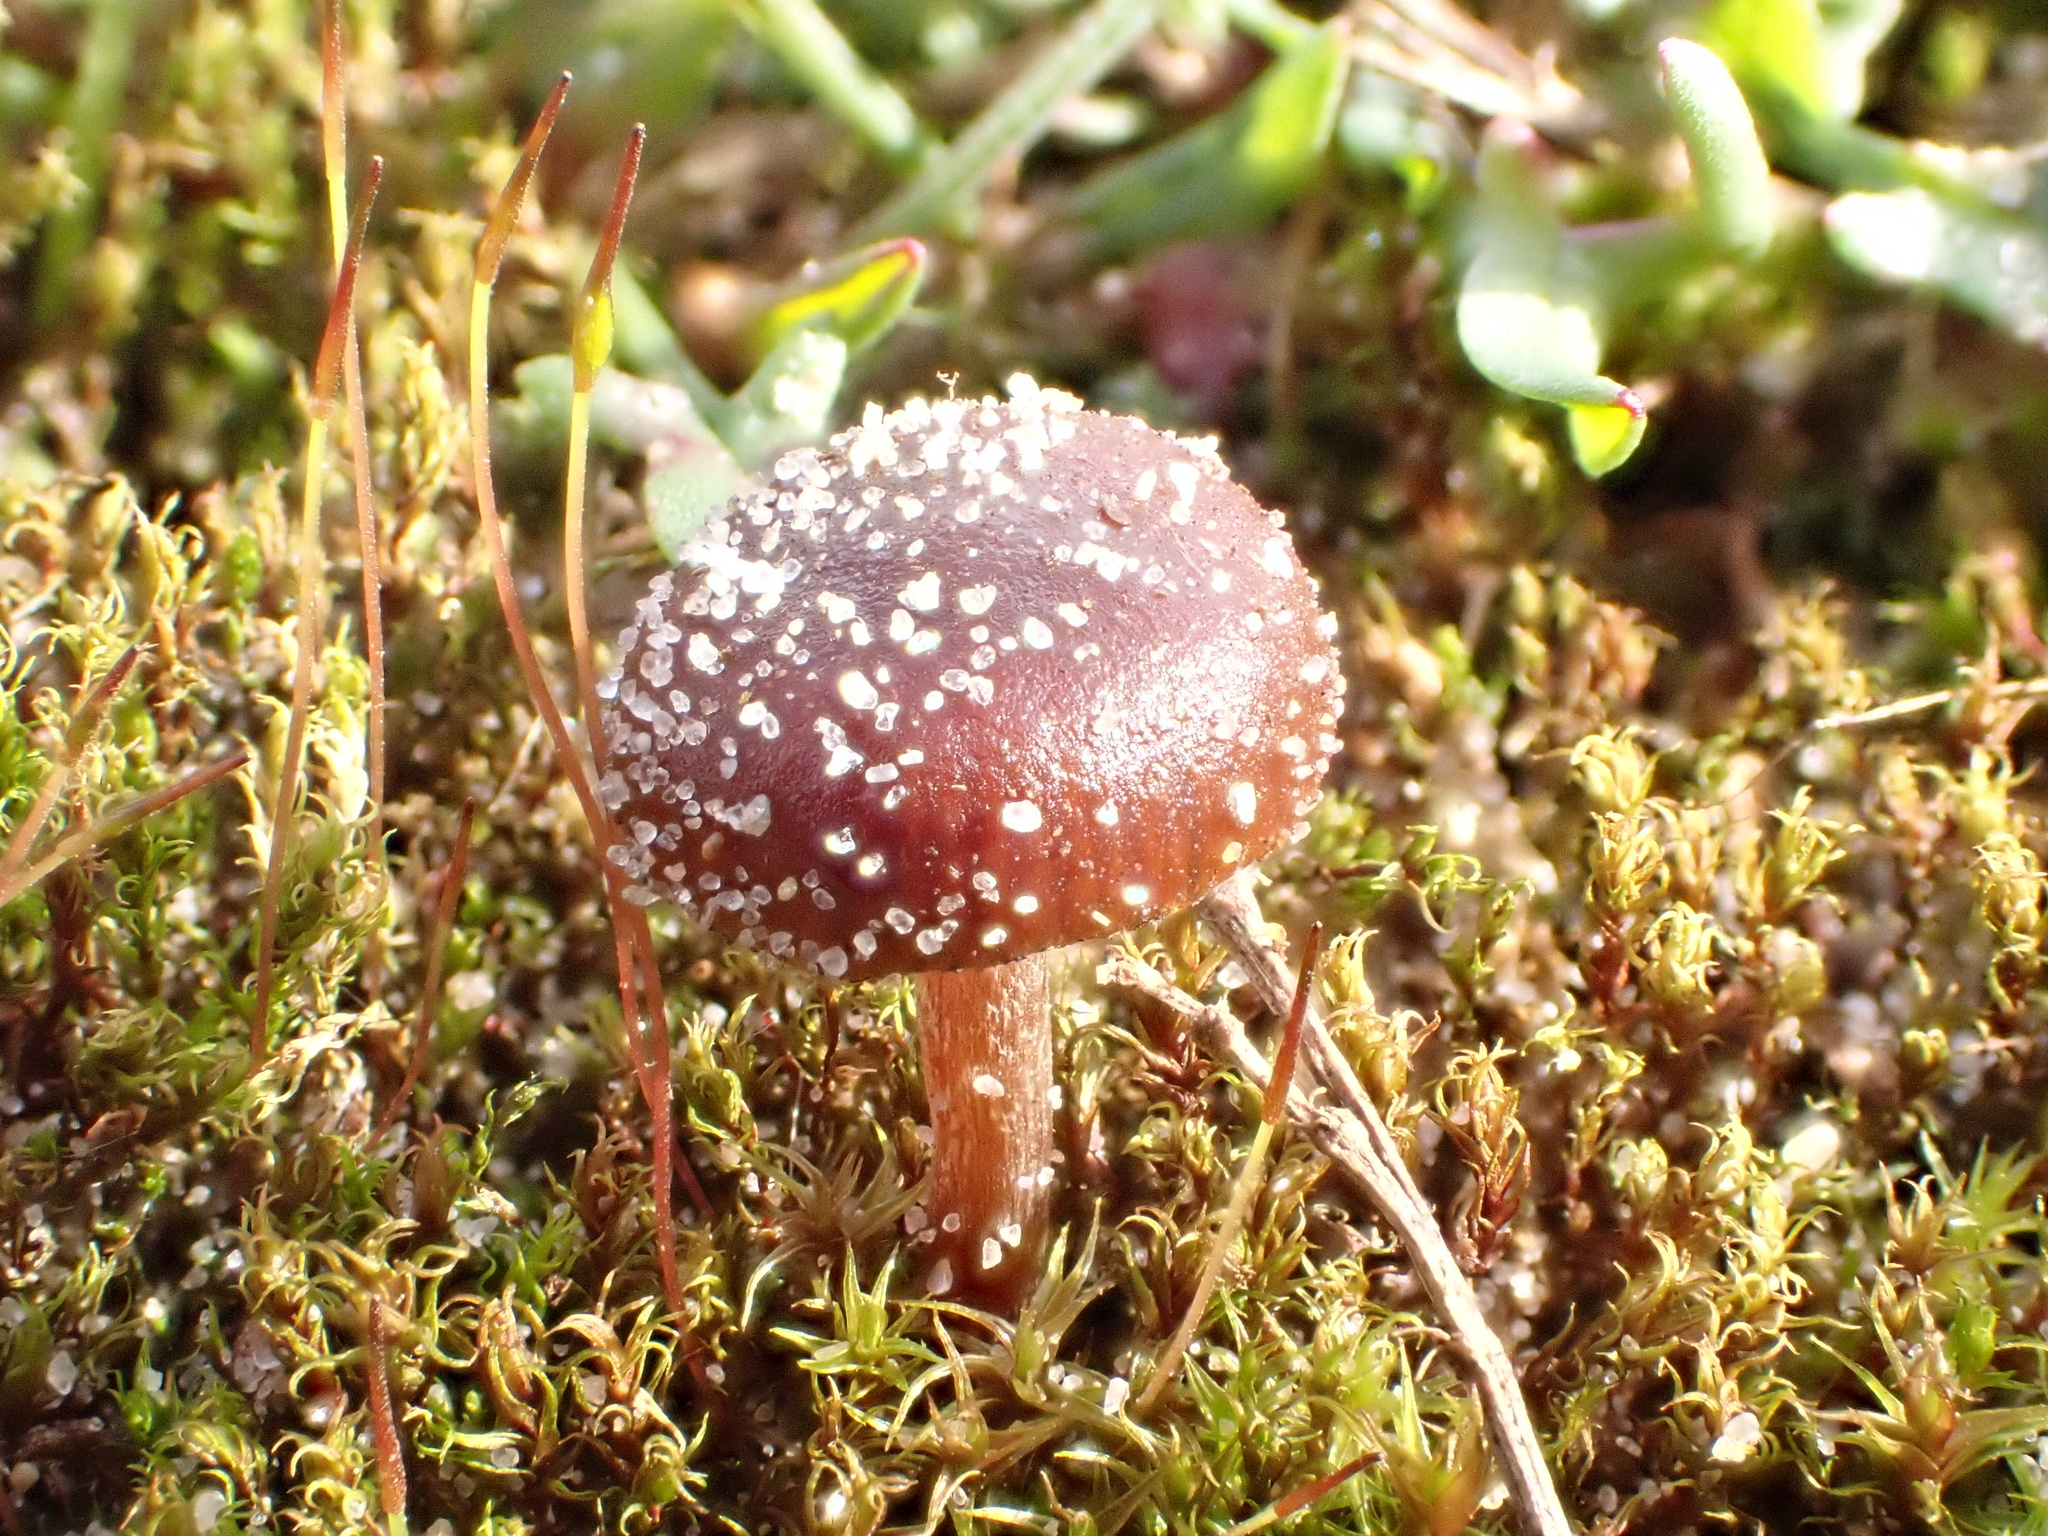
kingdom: Fungi
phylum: Basidiomycota
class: Agaricomycetes
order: Agaricales
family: Strophariaceae
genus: Deconica
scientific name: Deconica montana
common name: Mountain moss deconica
